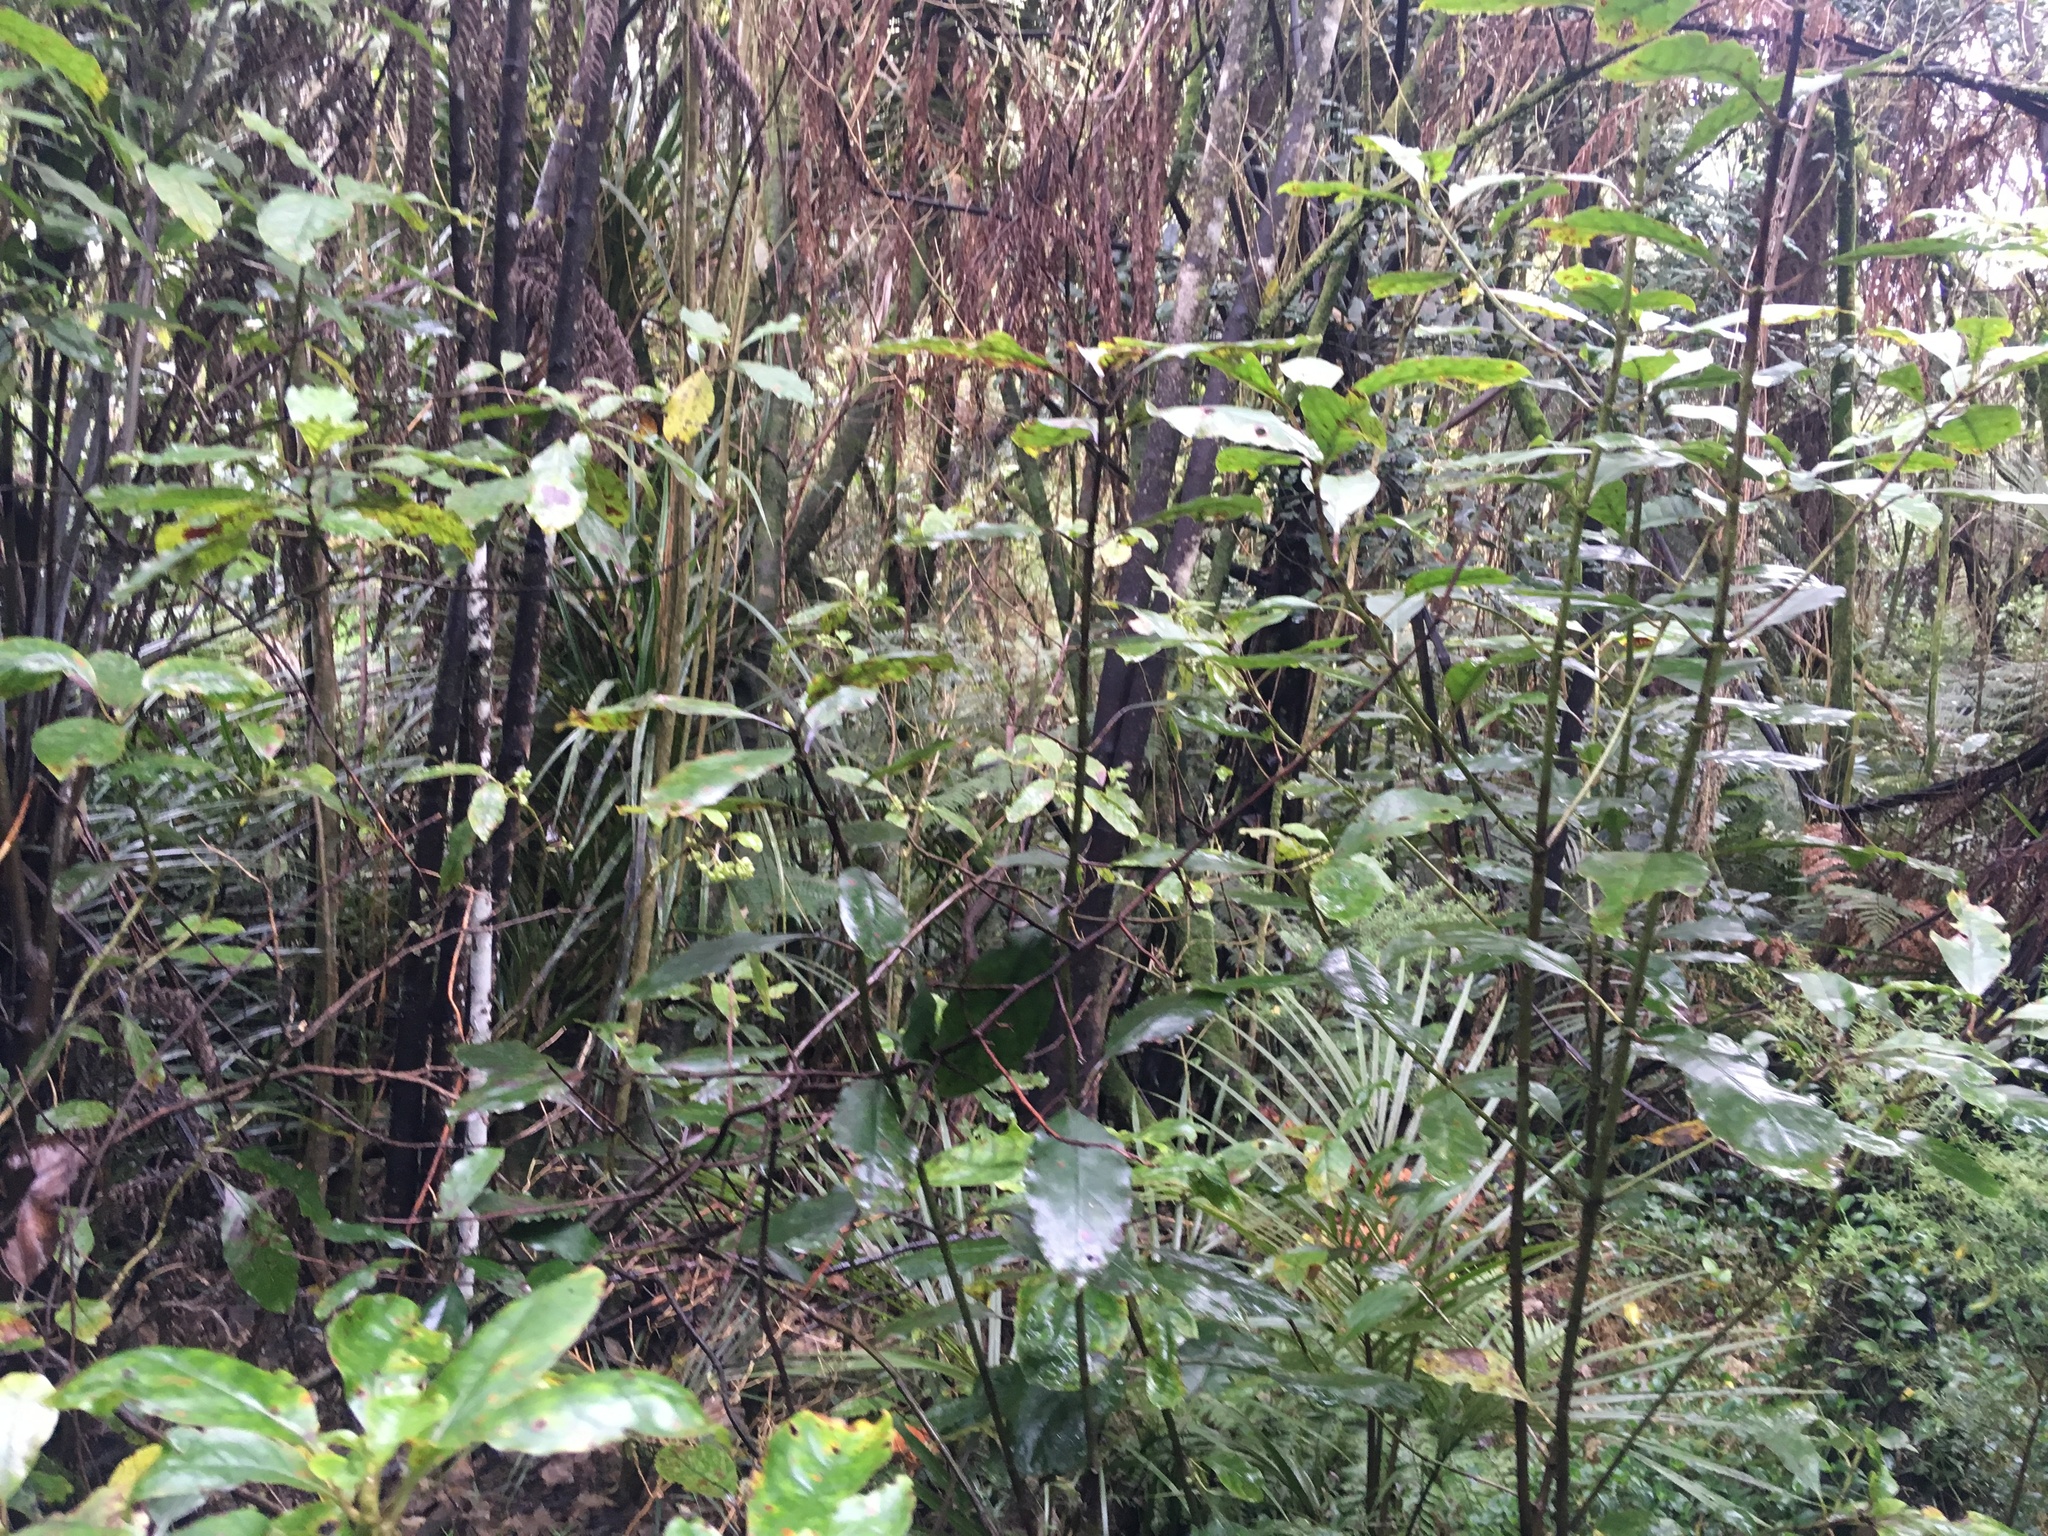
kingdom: Plantae
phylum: Tracheophyta
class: Magnoliopsida
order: Gentianales
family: Rubiaceae
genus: Coprosma
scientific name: Coprosma autumnalis
